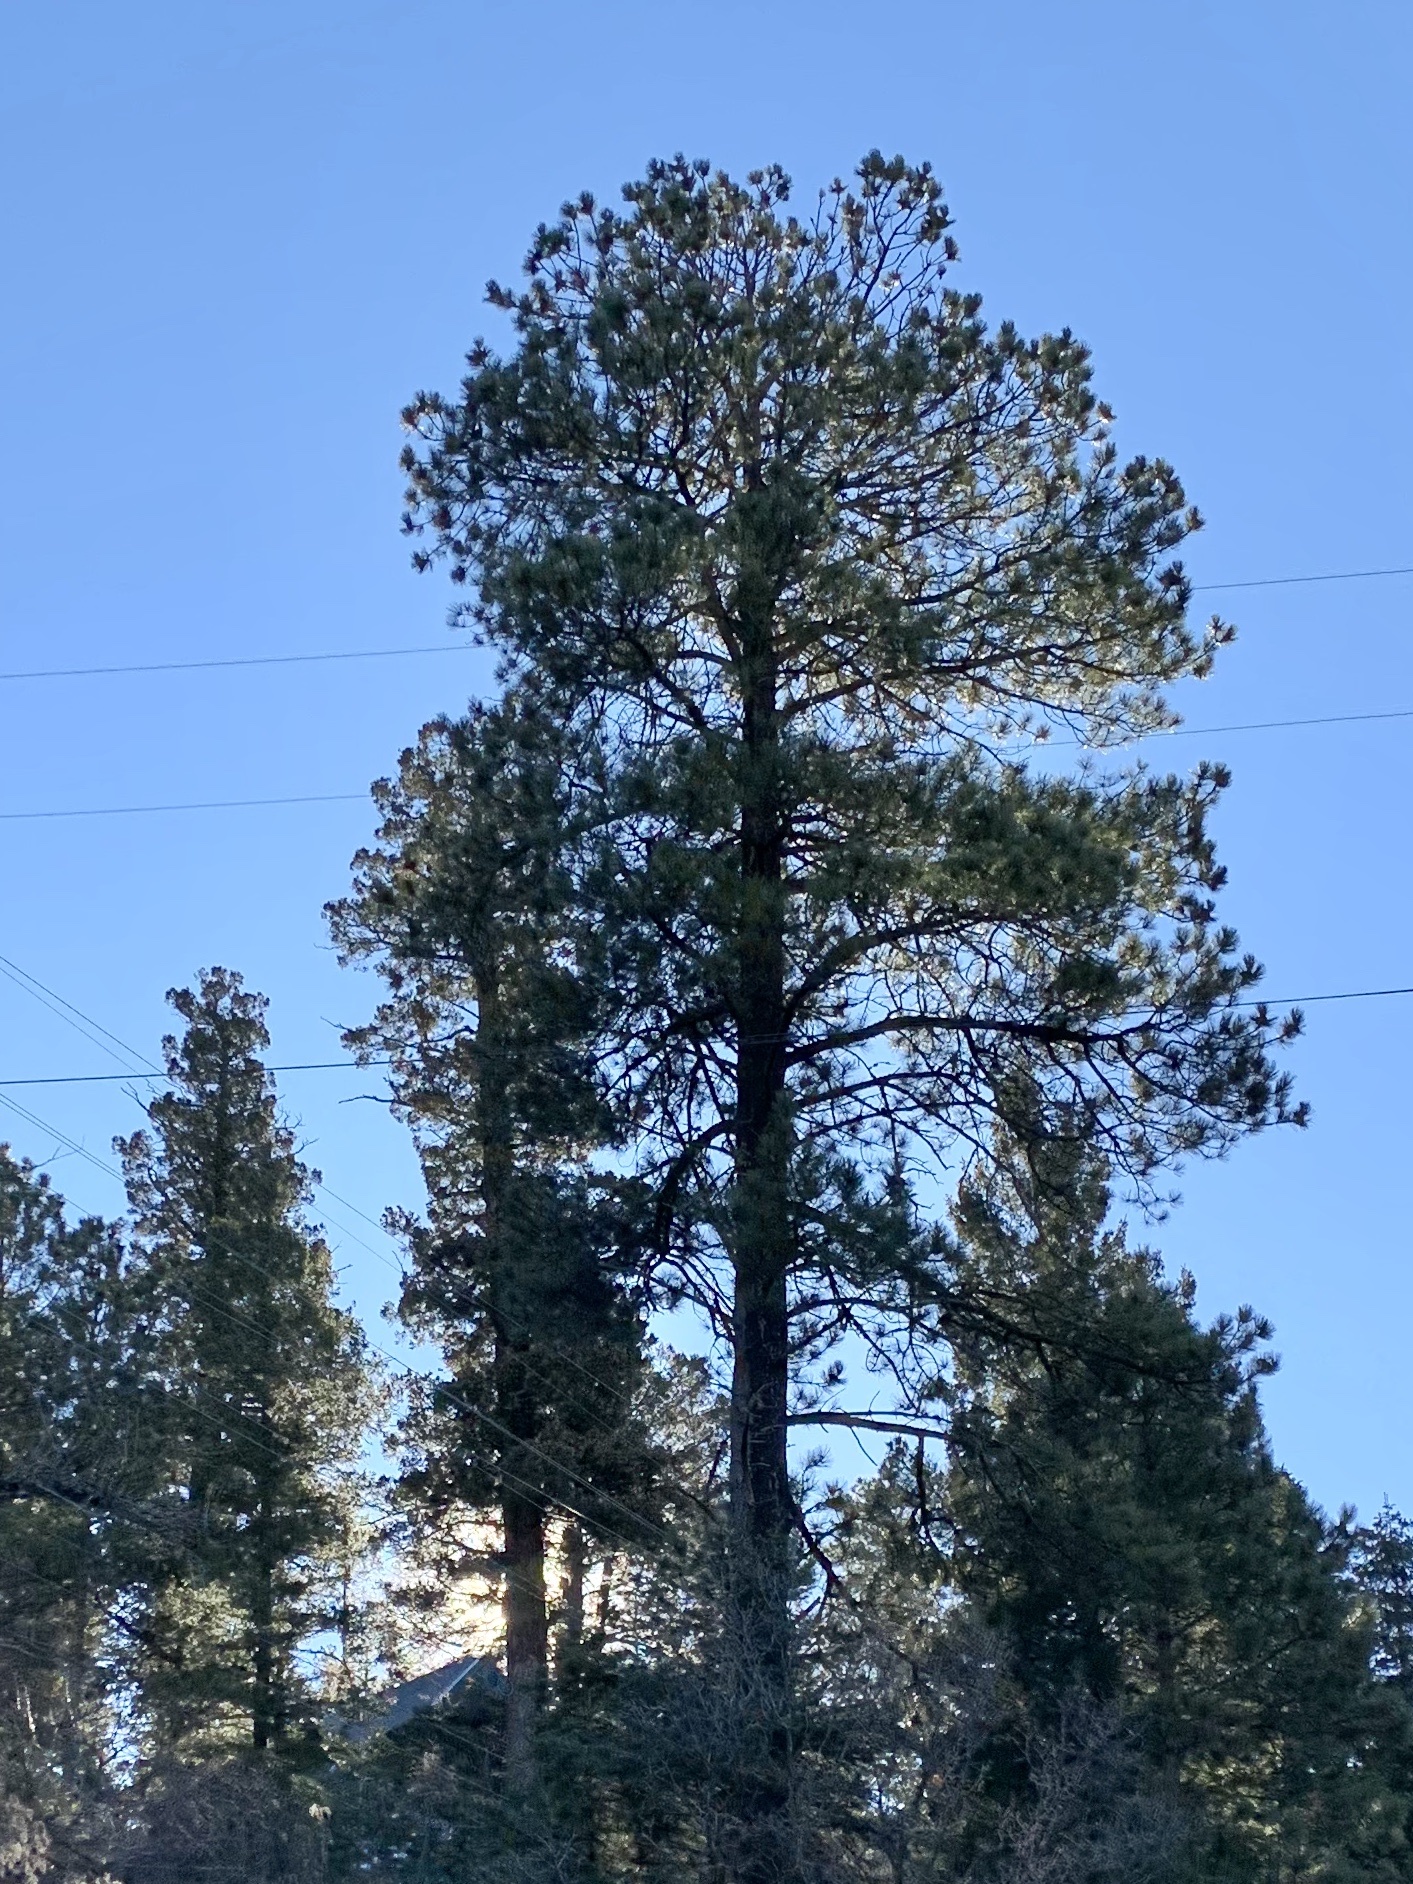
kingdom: Plantae
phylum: Tracheophyta
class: Pinopsida
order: Pinales
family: Pinaceae
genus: Pinus
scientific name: Pinus ponderosa
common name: Western yellow-pine
